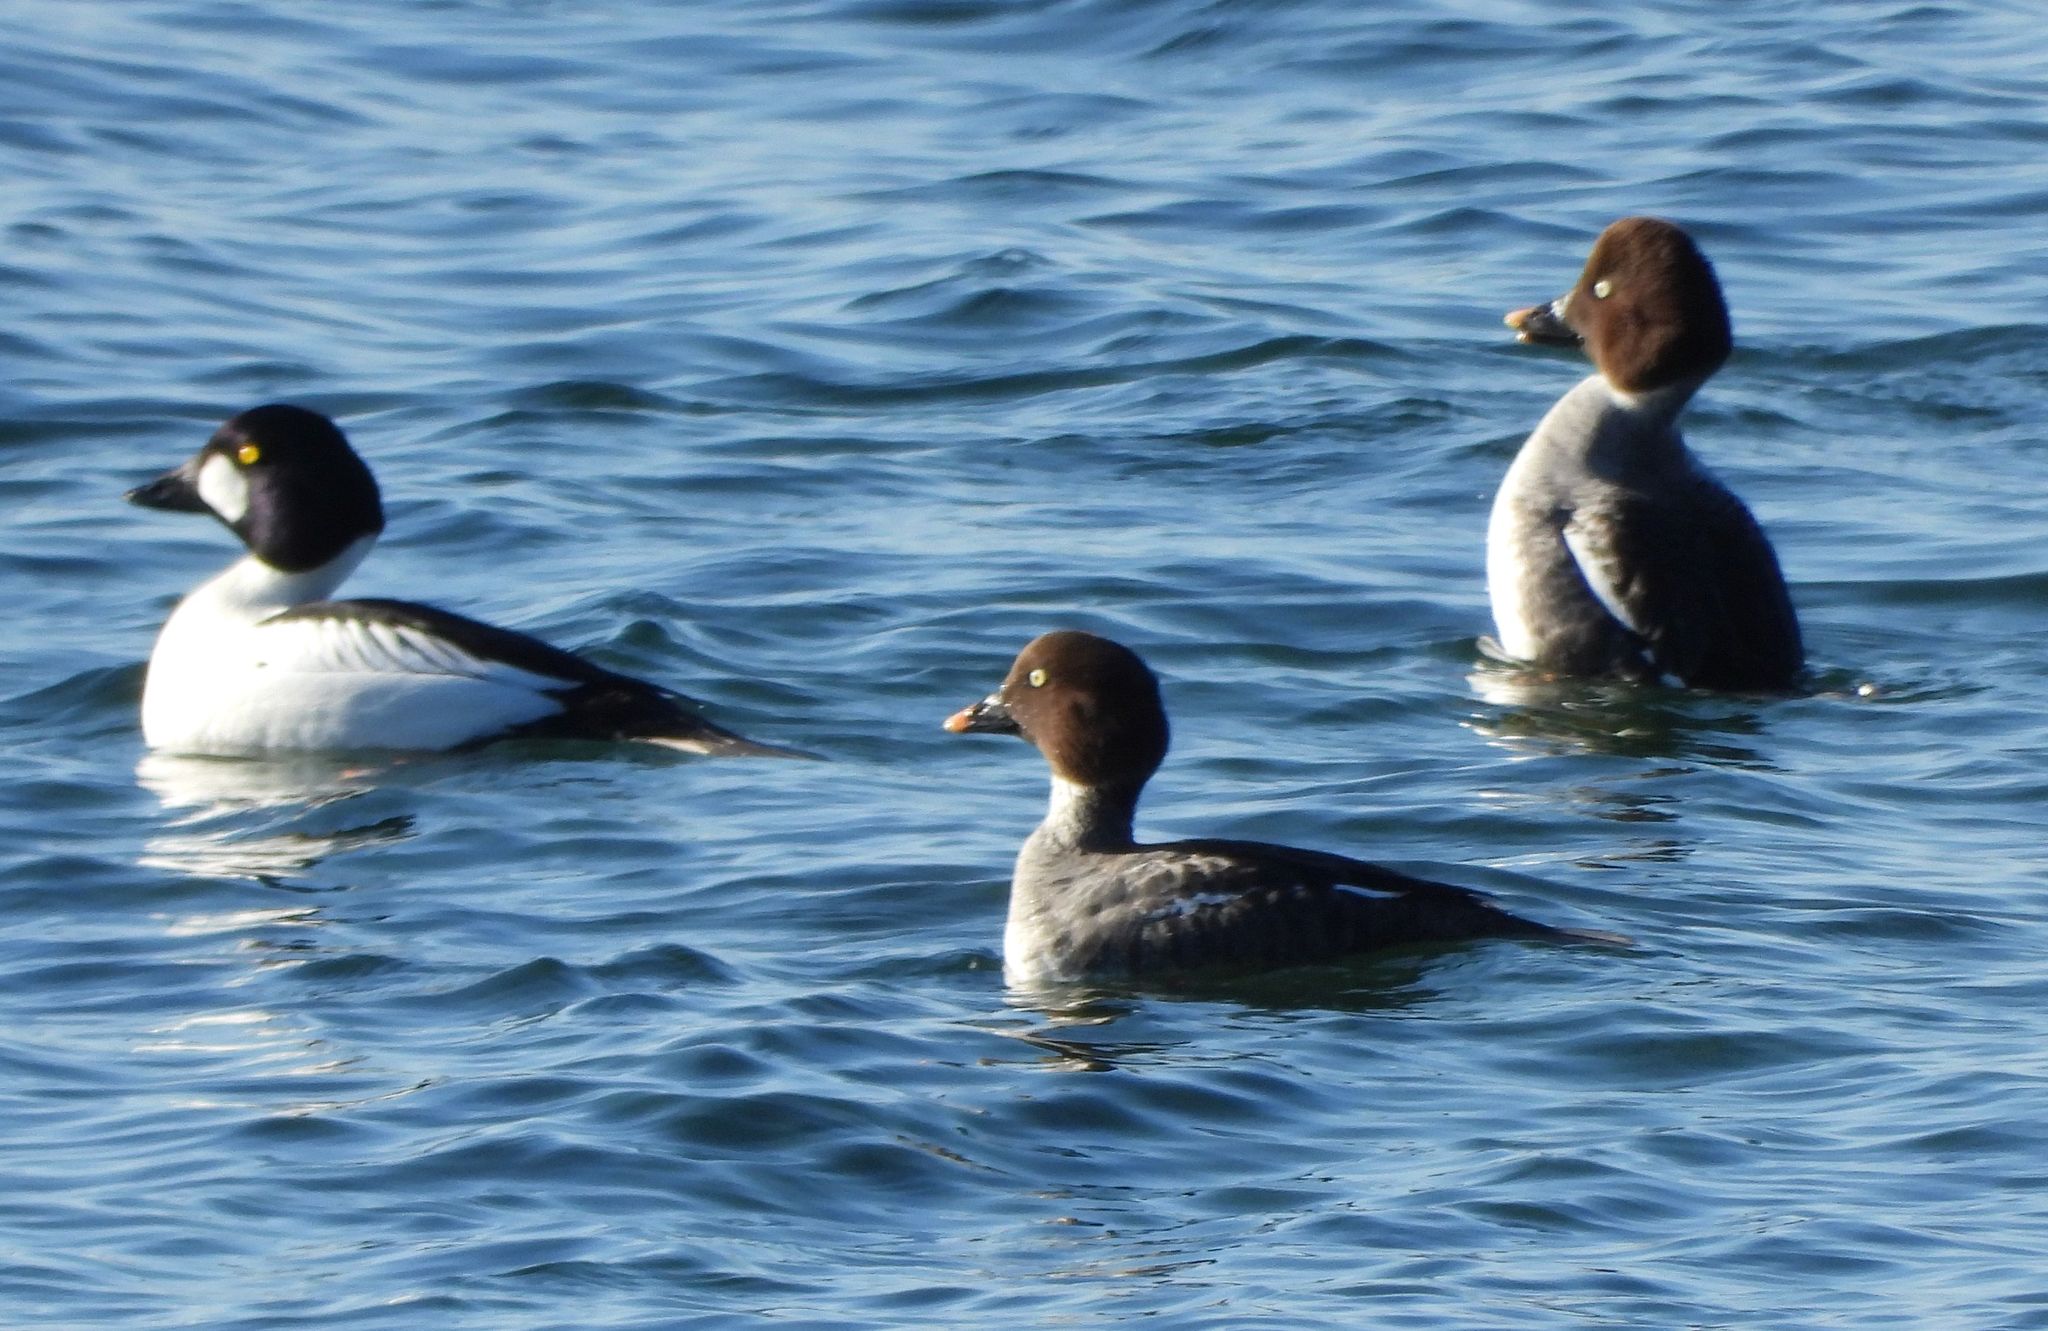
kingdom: Animalia
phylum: Chordata
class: Aves
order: Anseriformes
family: Anatidae
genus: Bucephala
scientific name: Bucephala clangula
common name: Common goldeneye
